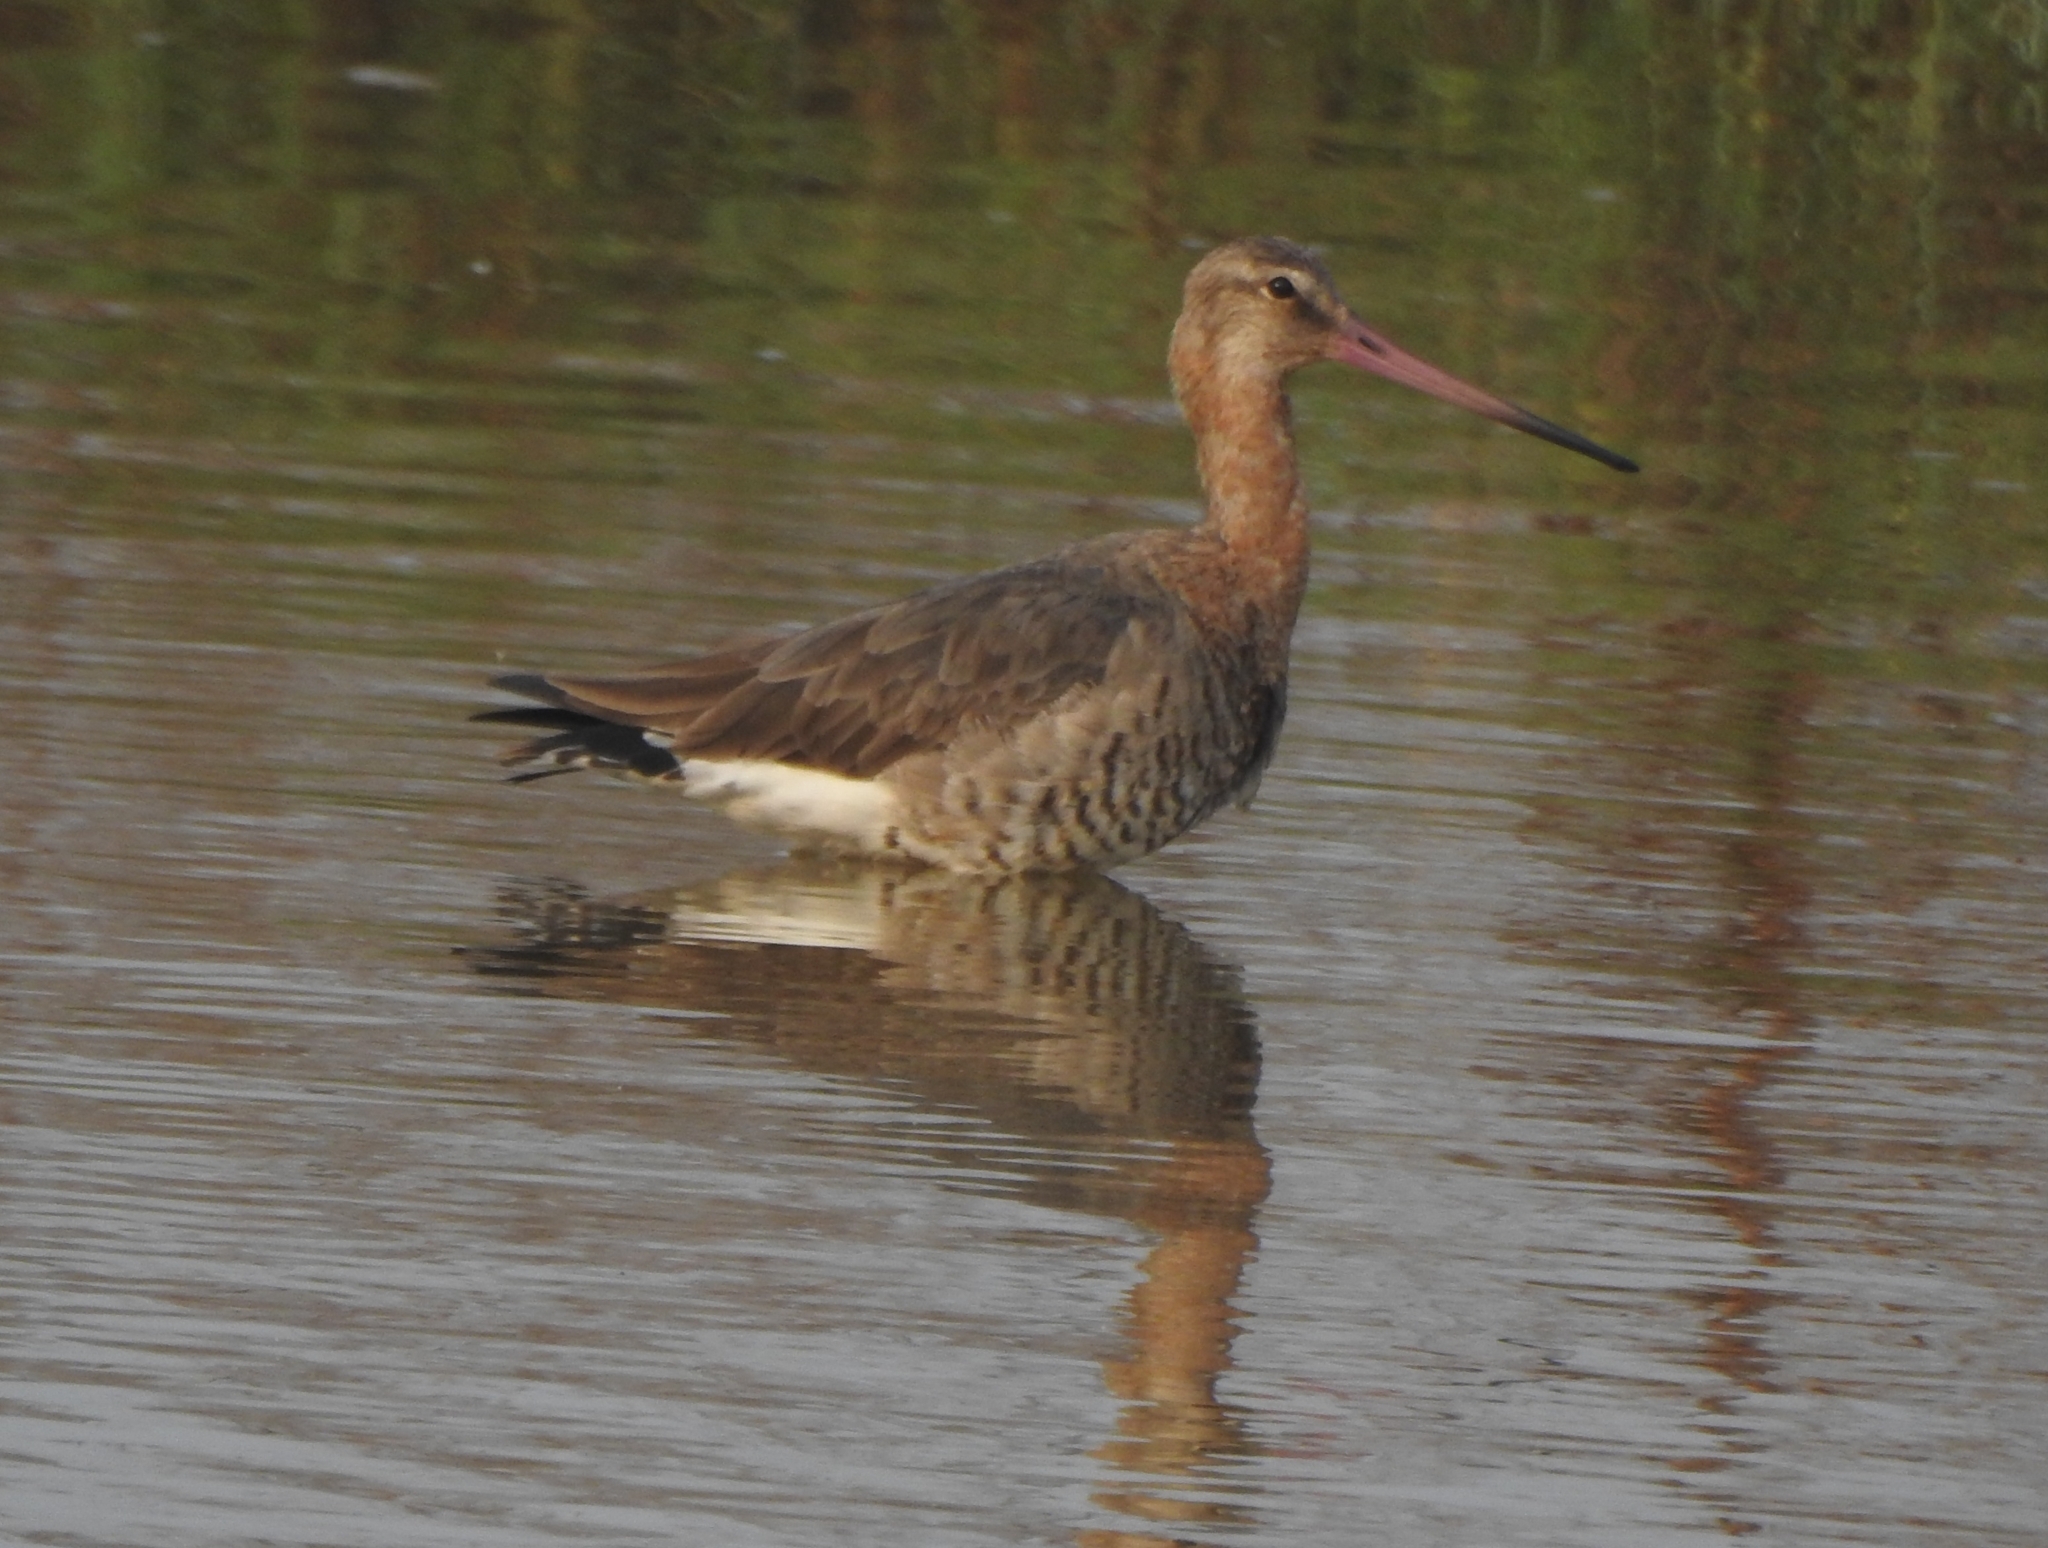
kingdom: Animalia
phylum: Chordata
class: Aves
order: Charadriiformes
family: Scolopacidae
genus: Limosa
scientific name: Limosa limosa
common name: Black-tailed godwit
